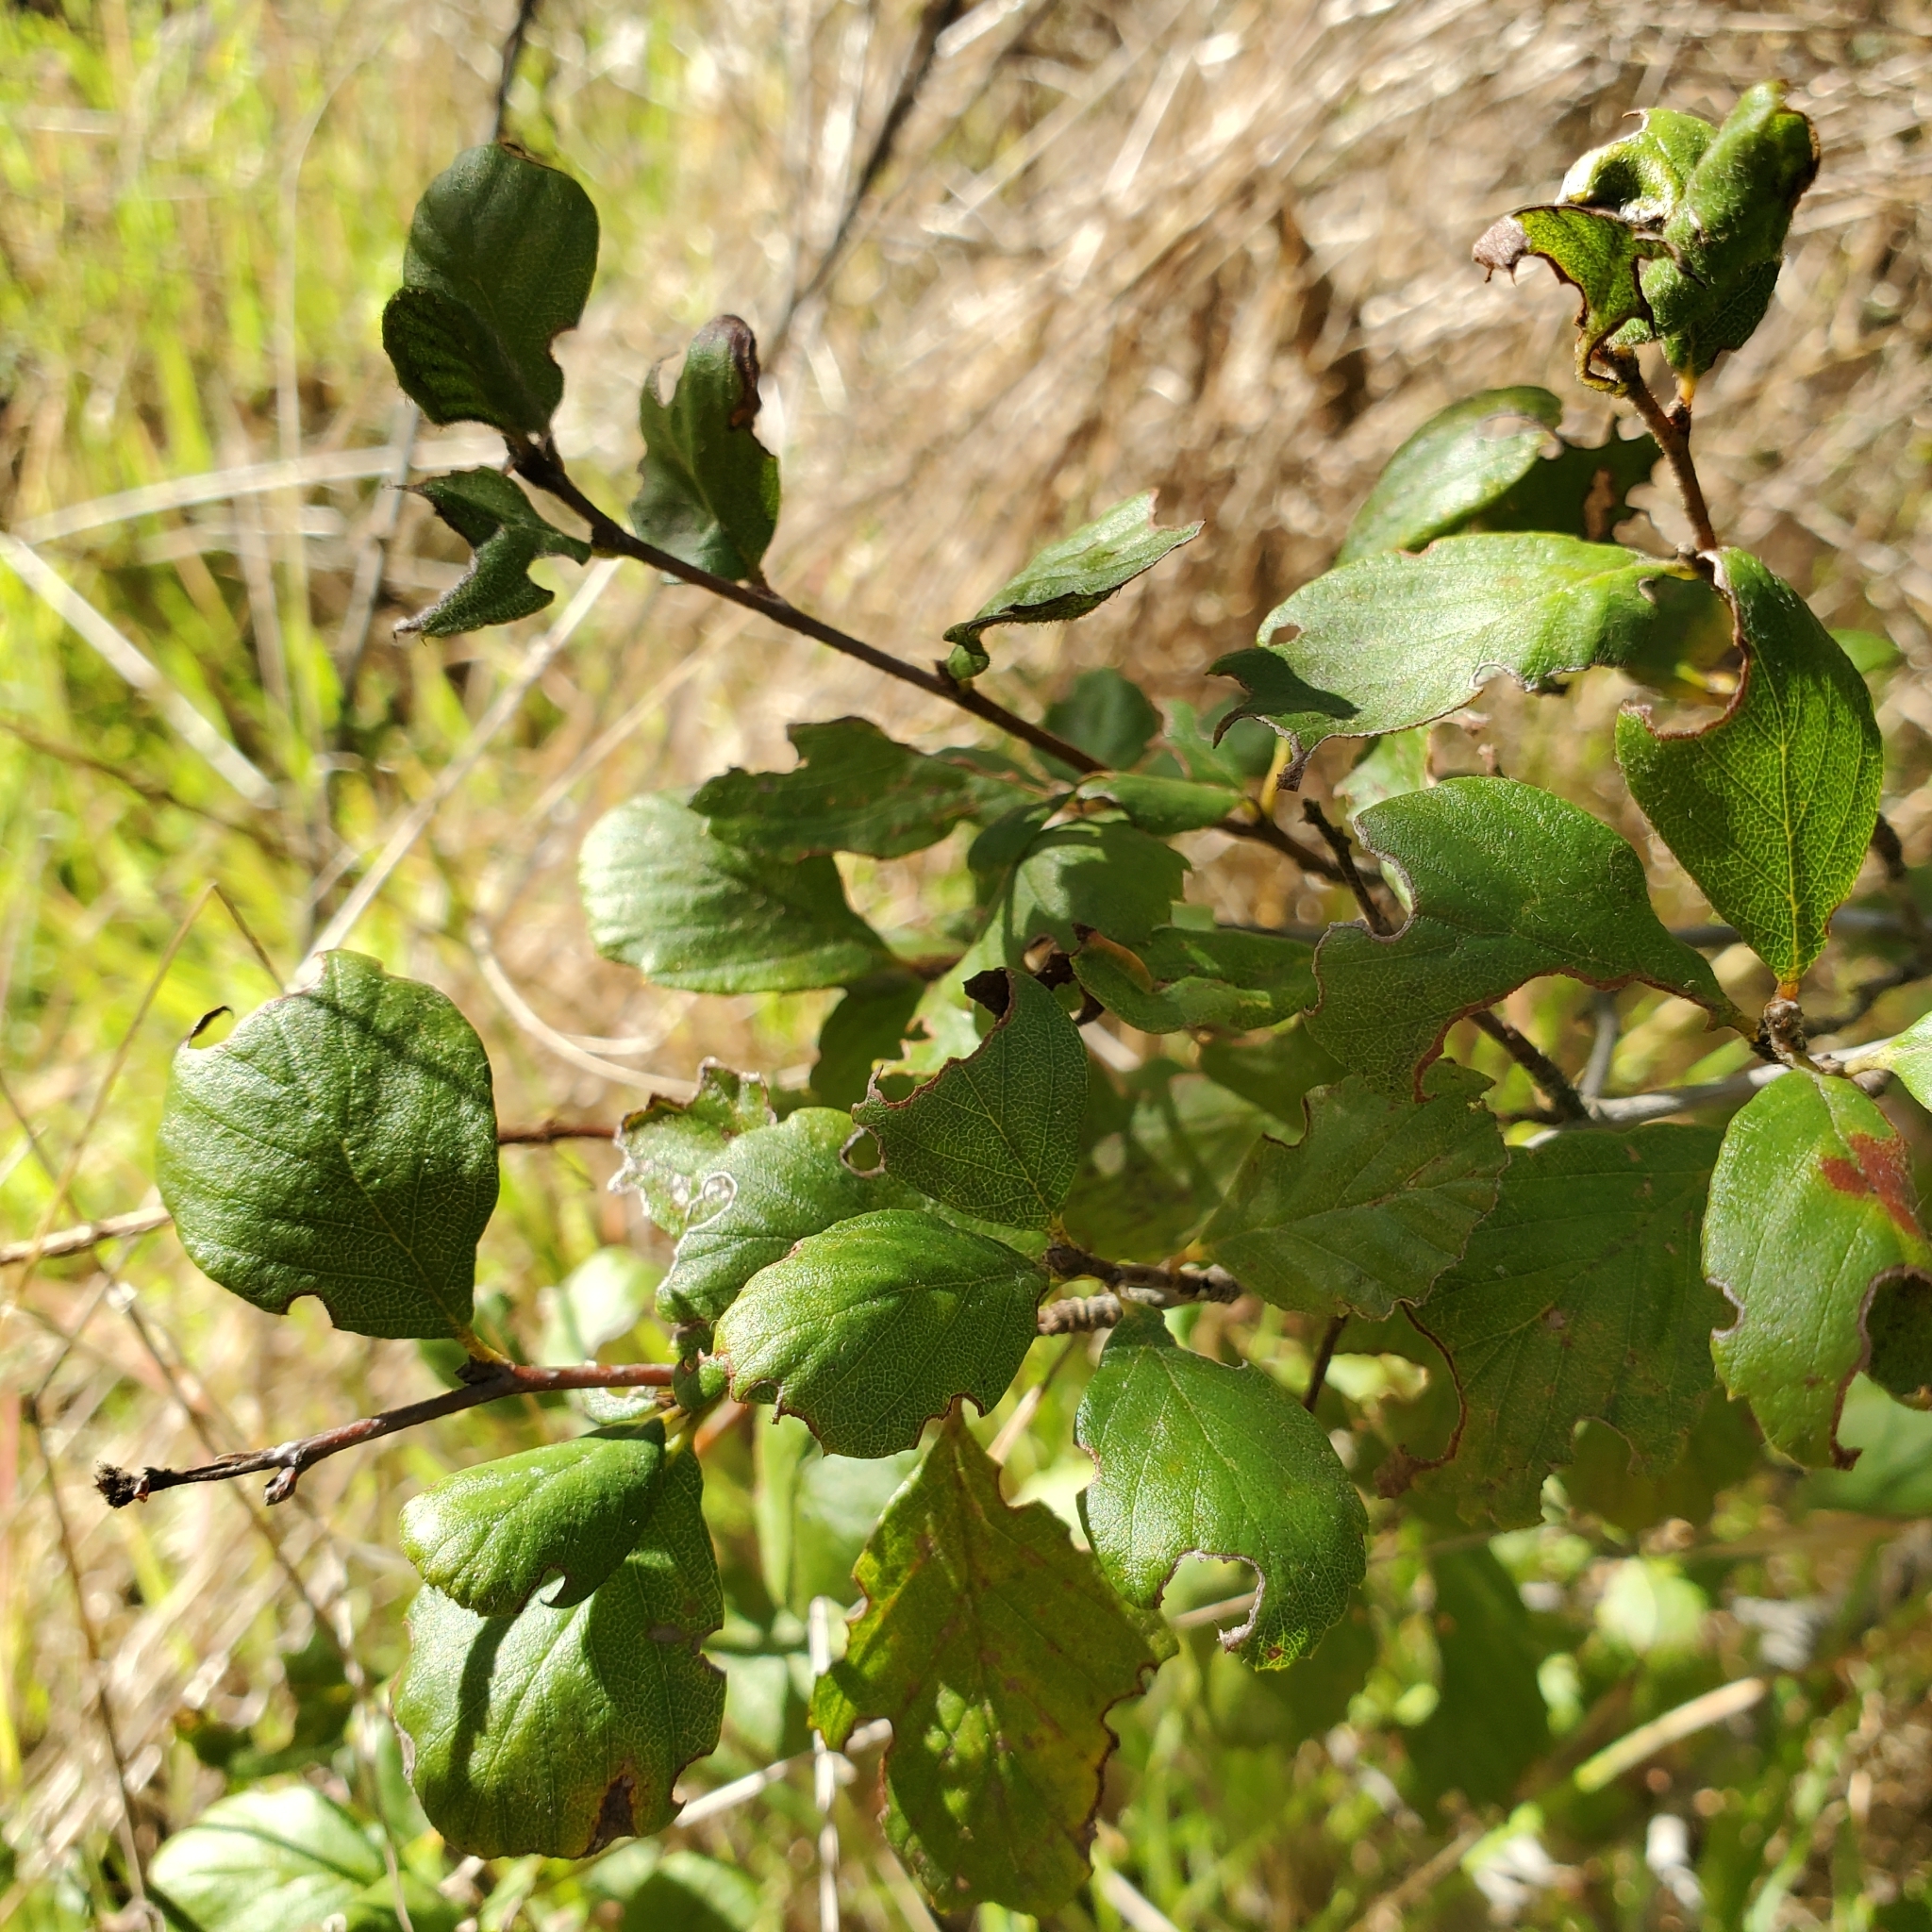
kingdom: Plantae
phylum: Tracheophyta
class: Magnoliopsida
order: Rosales
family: Rosaceae
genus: Cercocarpus
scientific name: Cercocarpus betuloides
